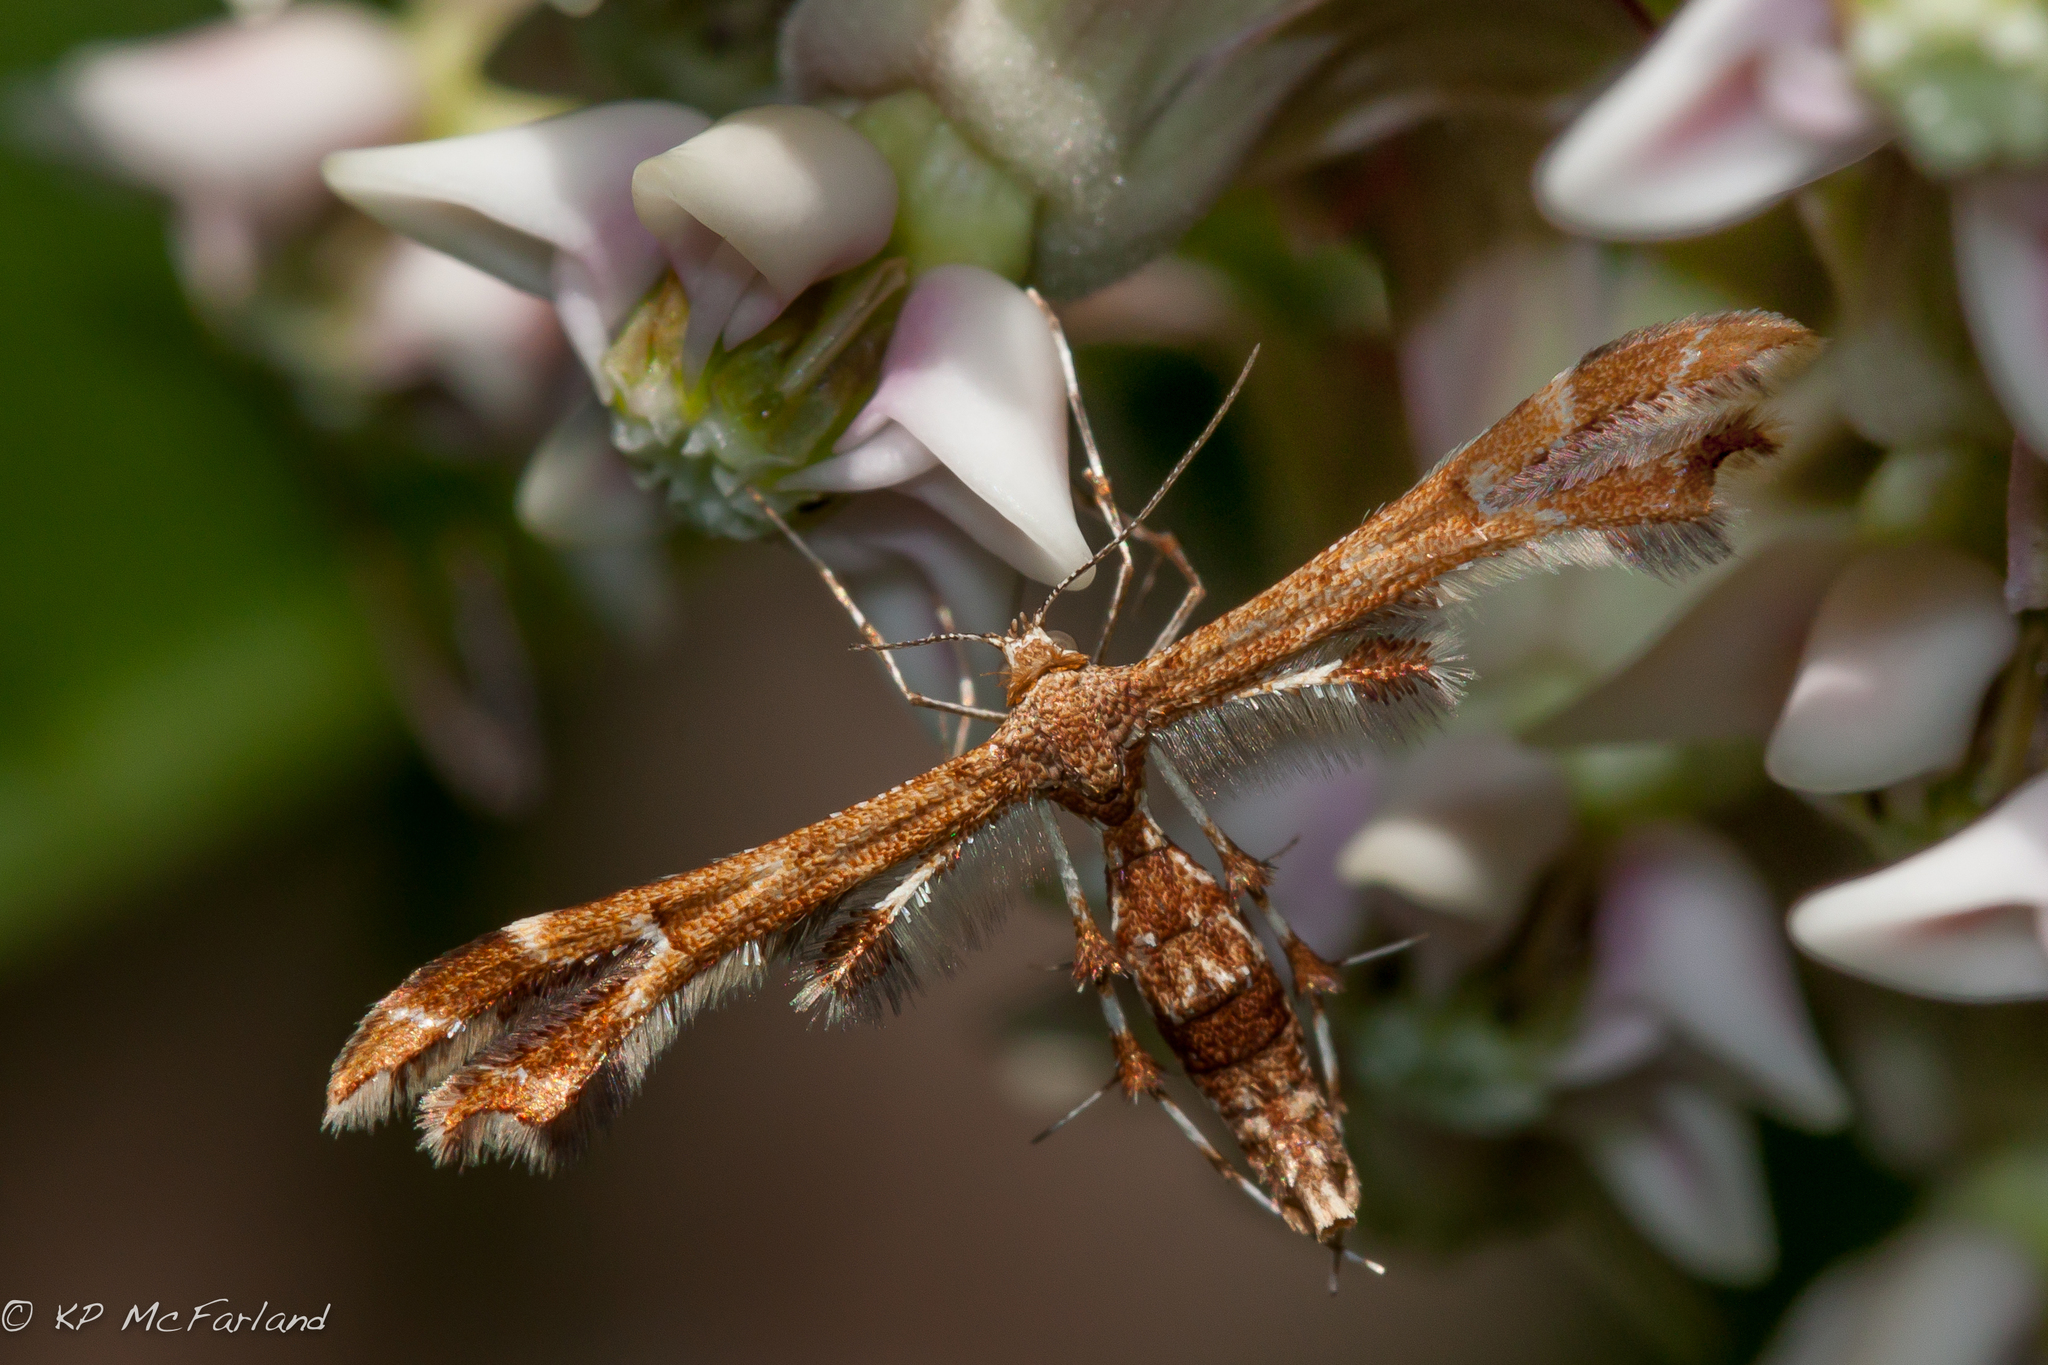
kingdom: Animalia
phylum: Arthropoda
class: Insecta
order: Lepidoptera
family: Pterophoridae
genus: Geina
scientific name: Geina
